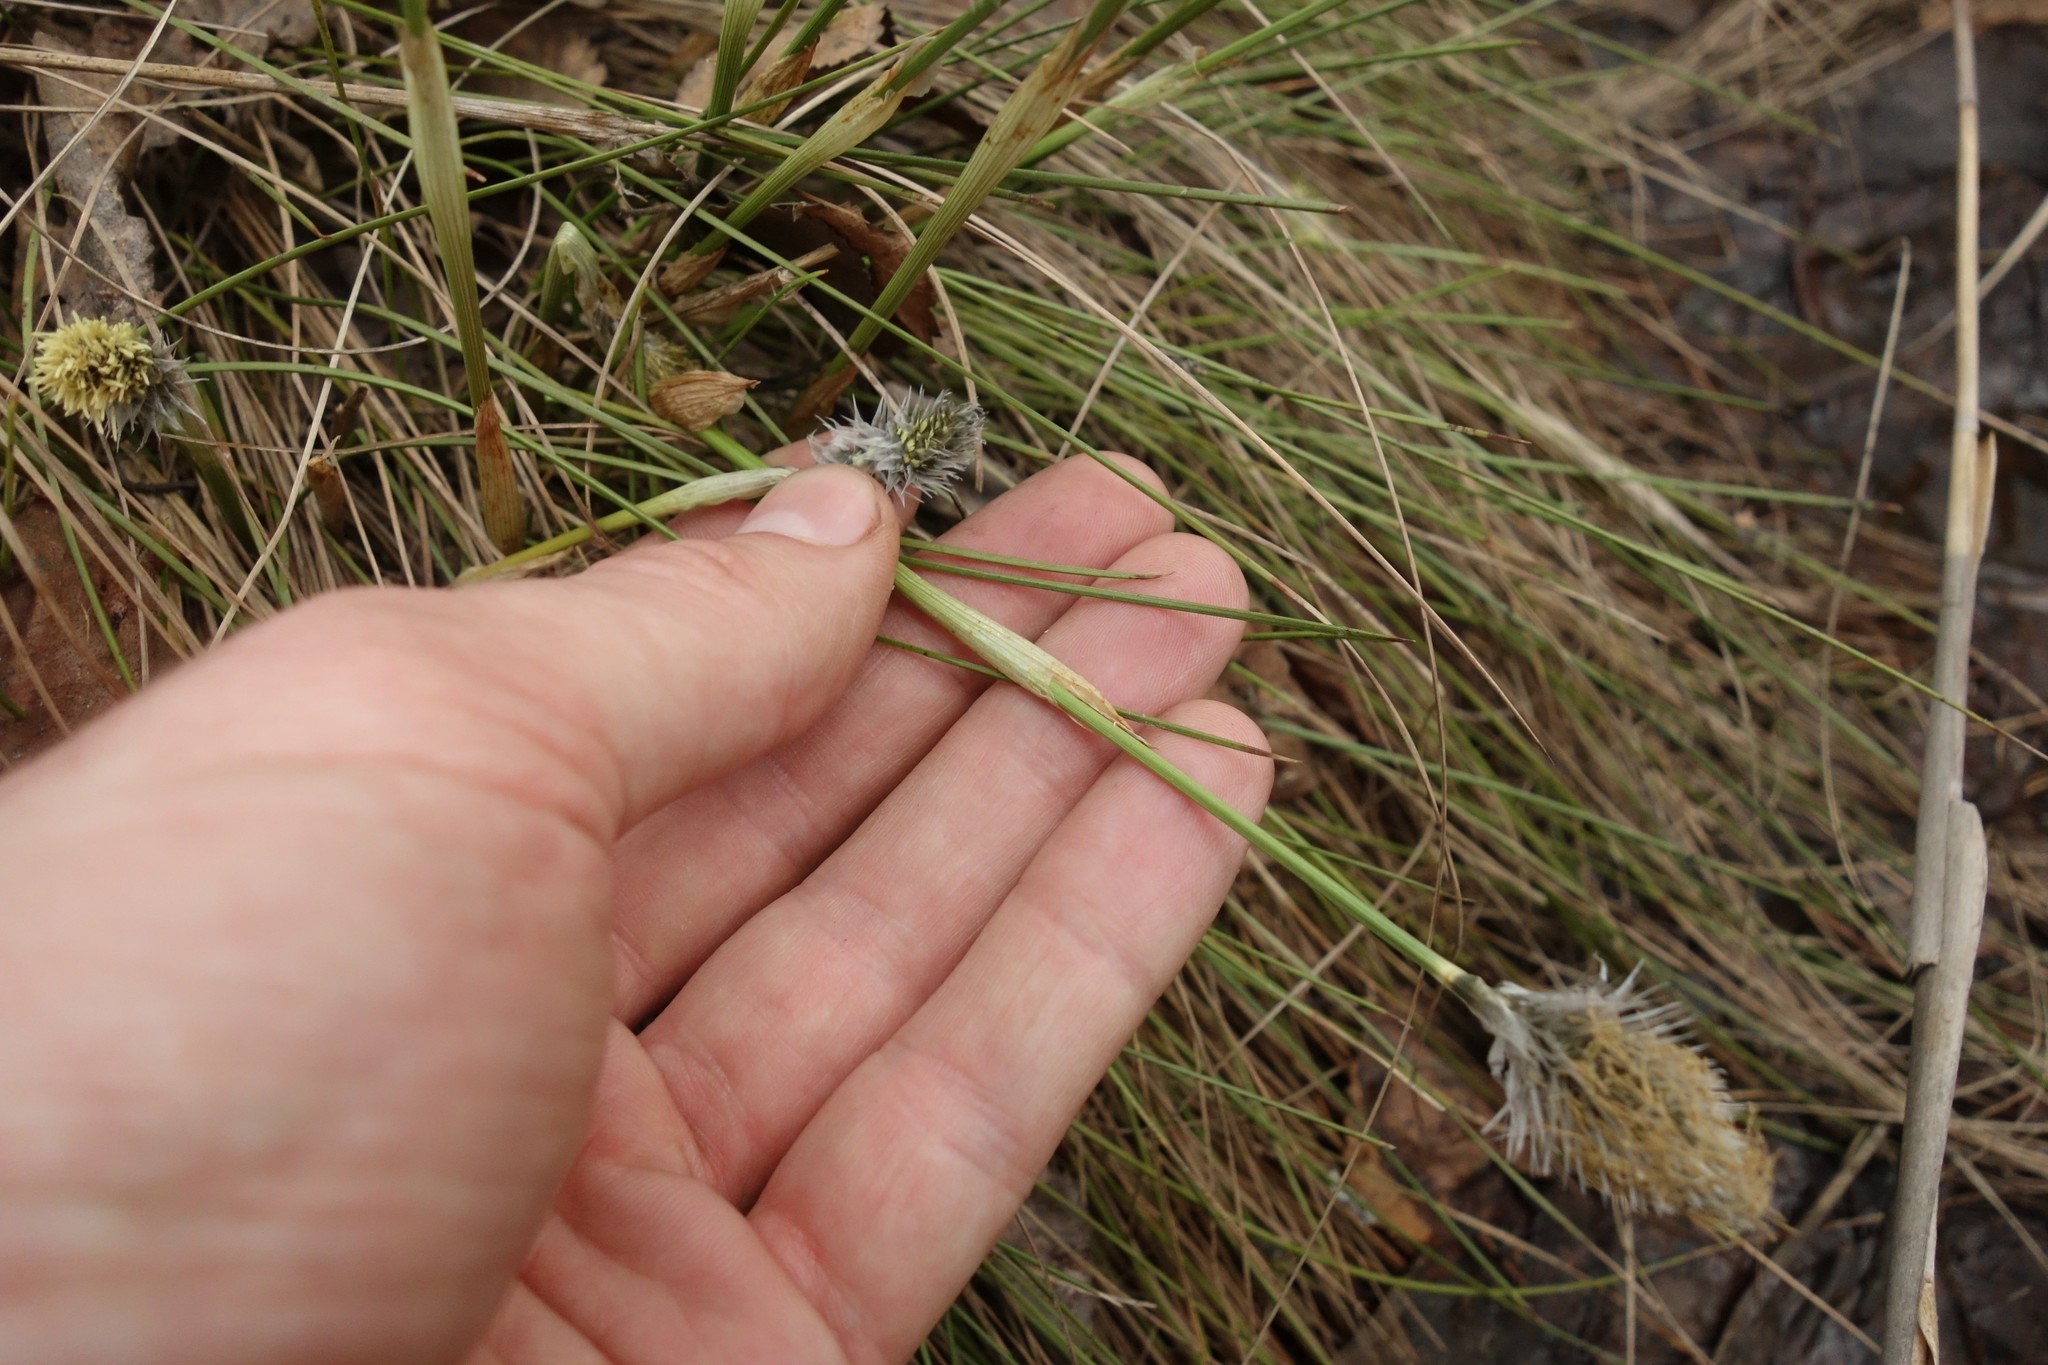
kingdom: Plantae
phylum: Tracheophyta
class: Liliopsida
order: Poales
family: Cyperaceae
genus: Eriophorum
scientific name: Eriophorum vaginatum
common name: Hare's-tail cottongrass
